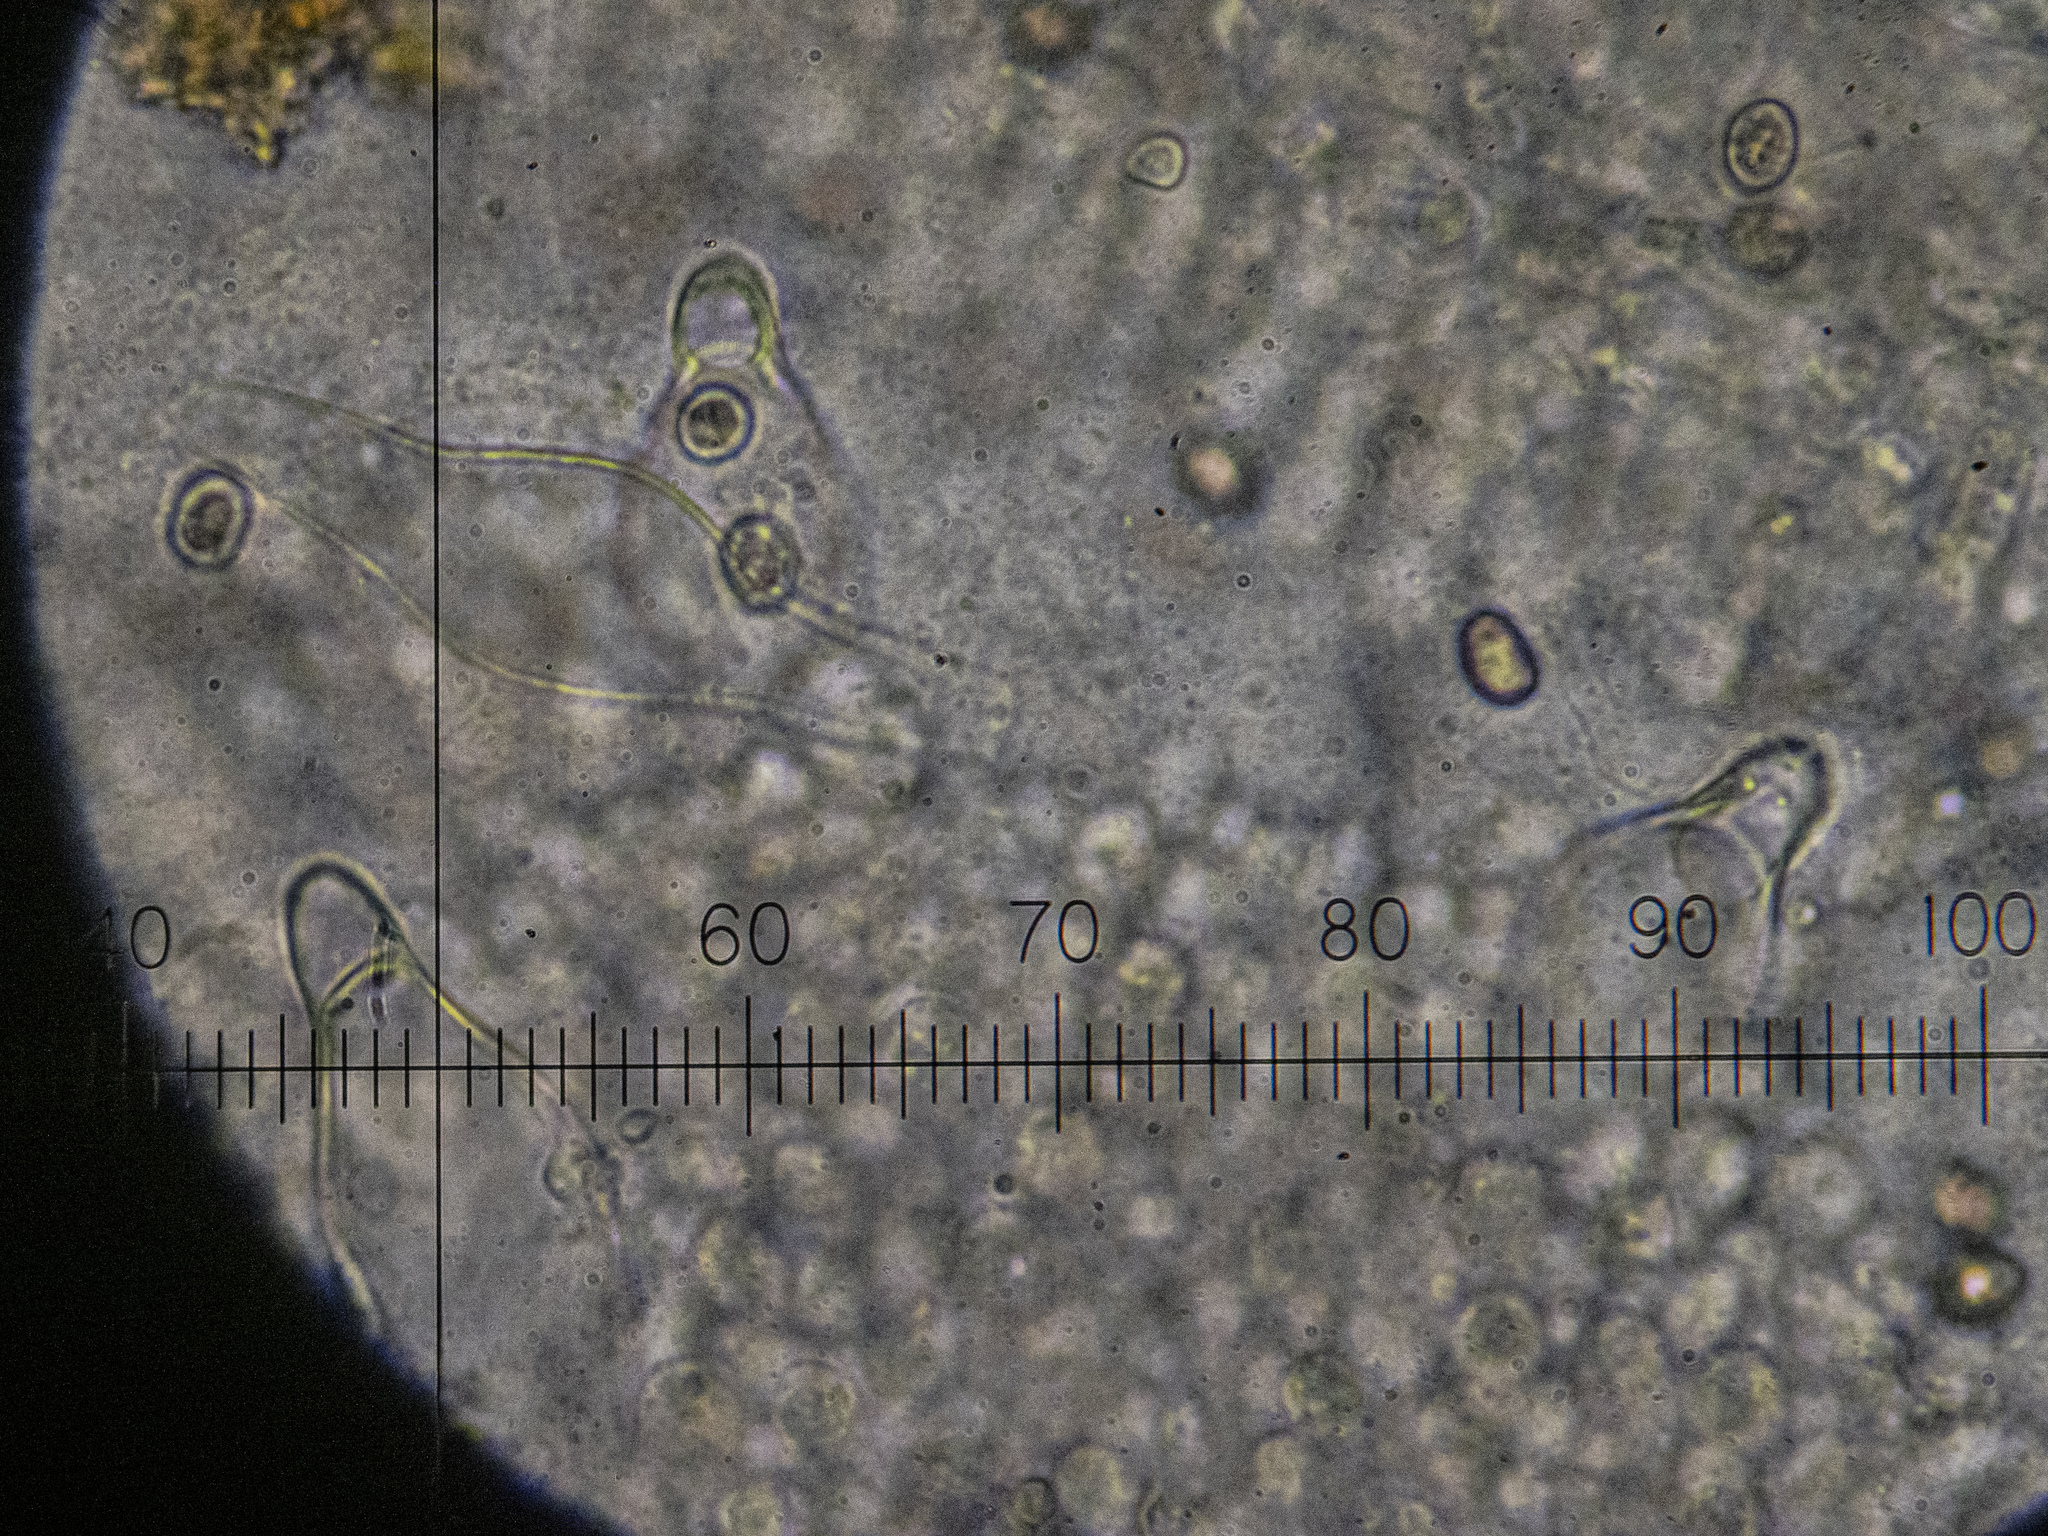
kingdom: Fungi
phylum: Basidiomycota
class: Agaricomycetes
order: Agaricales
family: Pluteaceae
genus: Pluteus
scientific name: Pluteus phlebophorus
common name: Wrinkled shield
